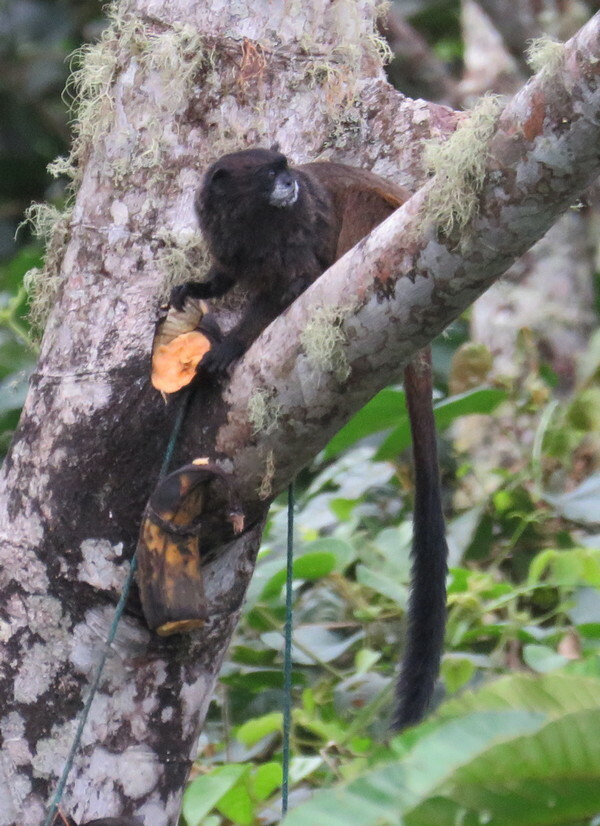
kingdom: Animalia
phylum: Chordata
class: Mammalia
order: Primates
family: Callitrichidae
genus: Leontocebus
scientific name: Leontocebus nigricollis
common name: Black-mantled tamarin
